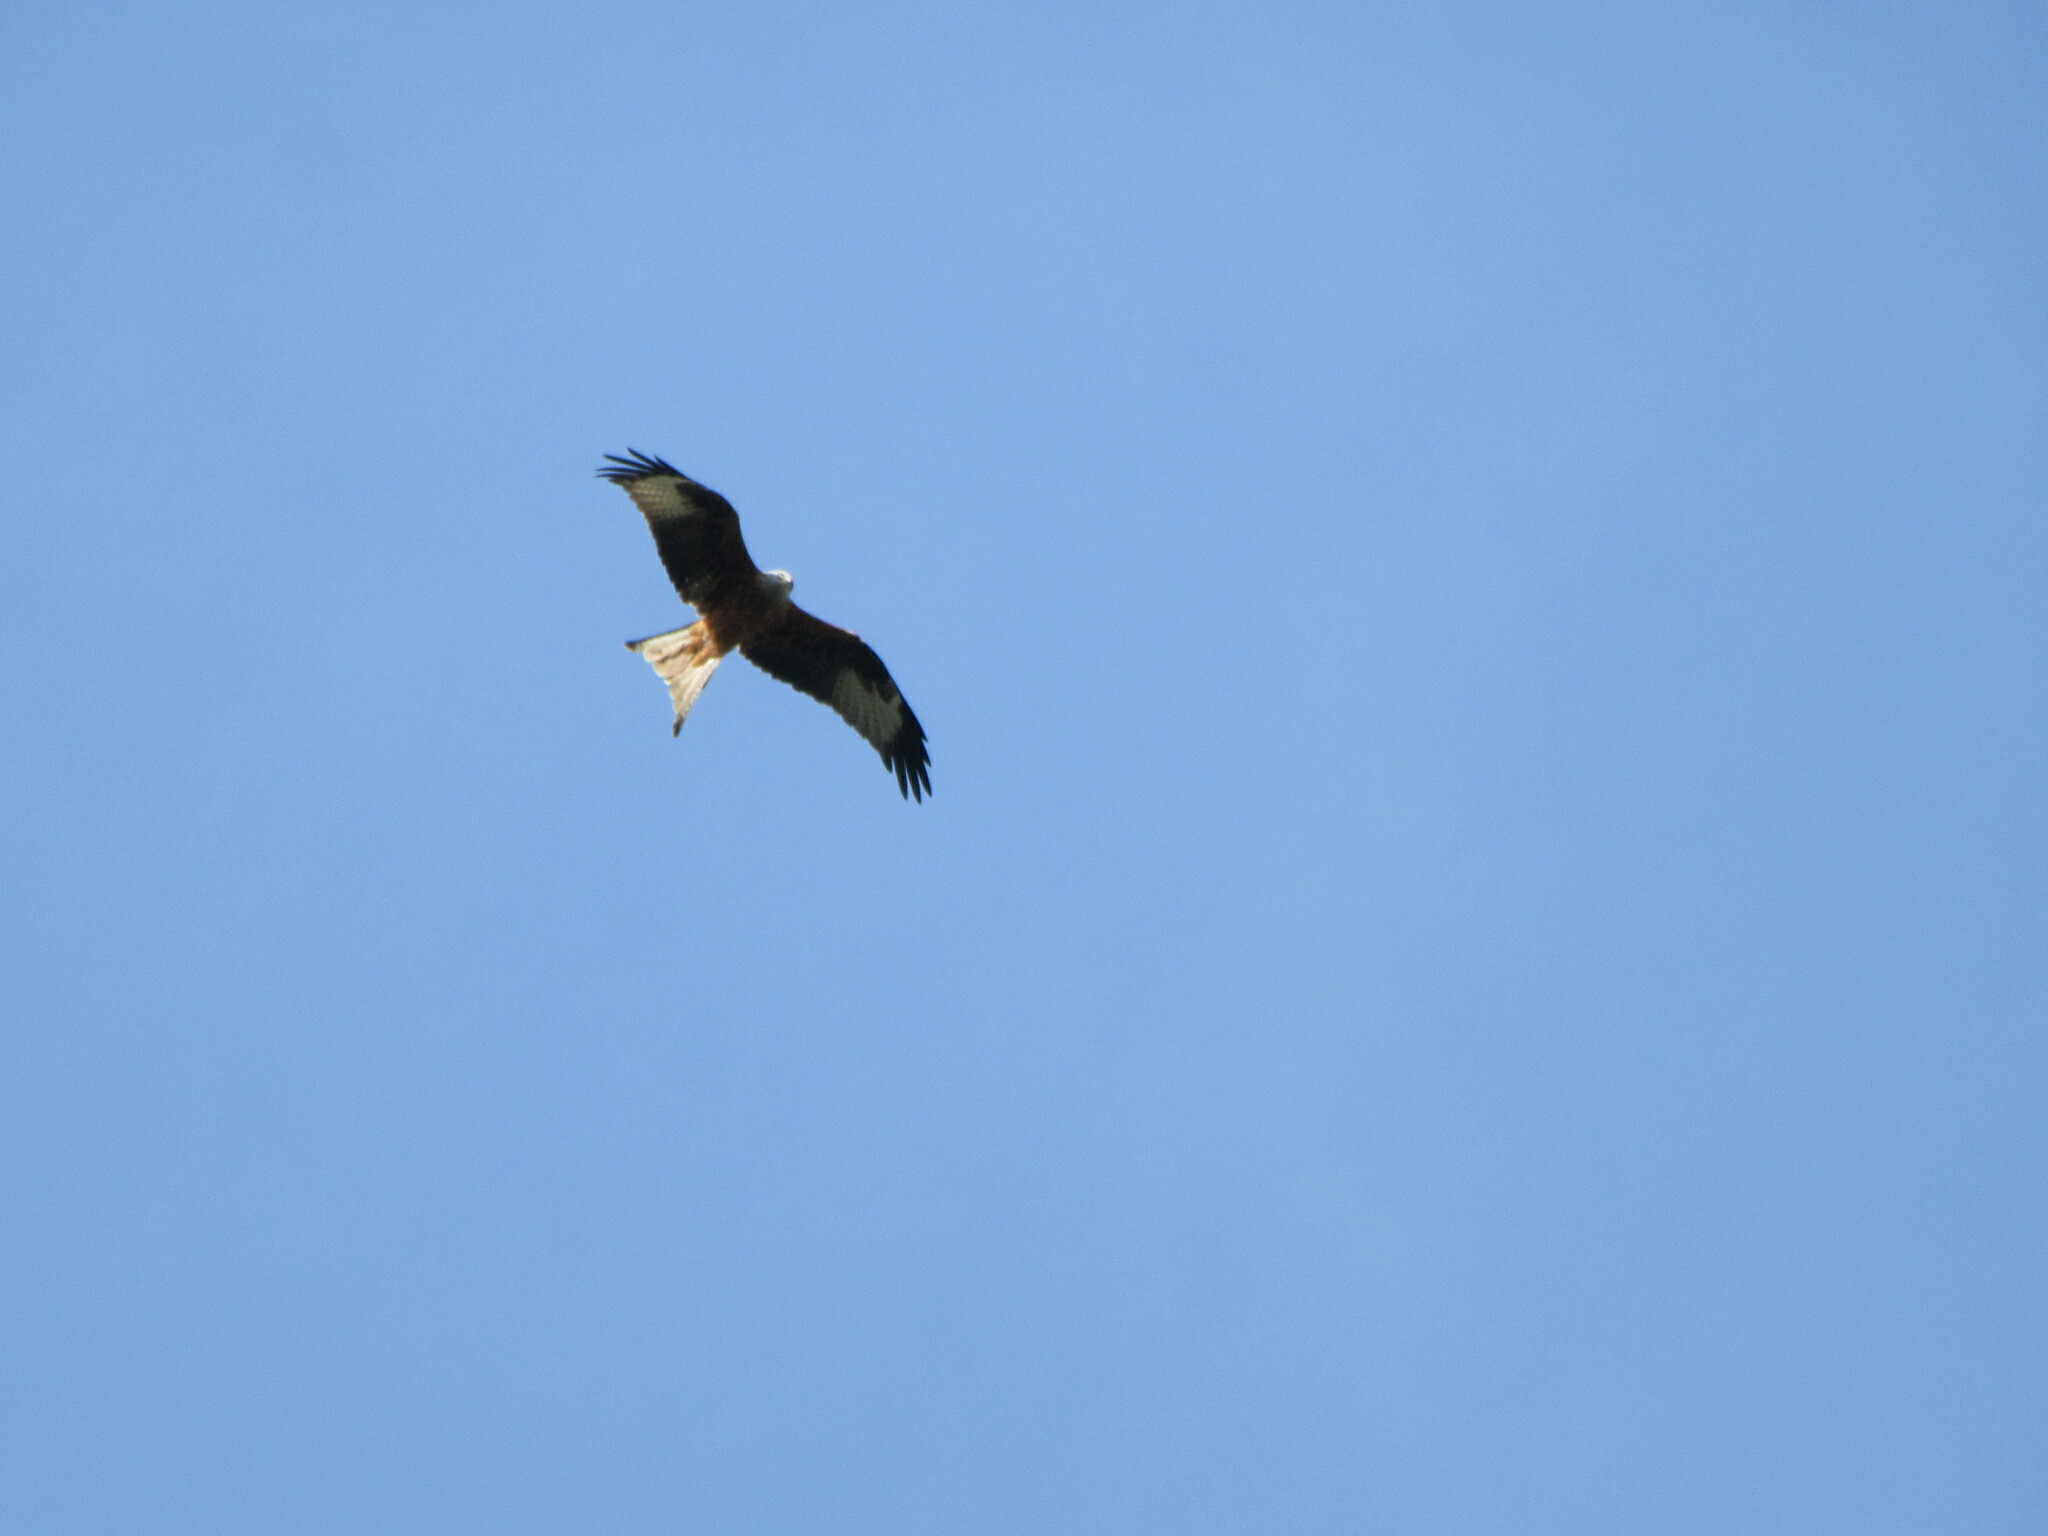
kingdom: Animalia
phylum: Chordata
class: Aves
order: Accipitriformes
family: Accipitridae
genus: Milvus
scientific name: Milvus milvus
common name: Red kite
